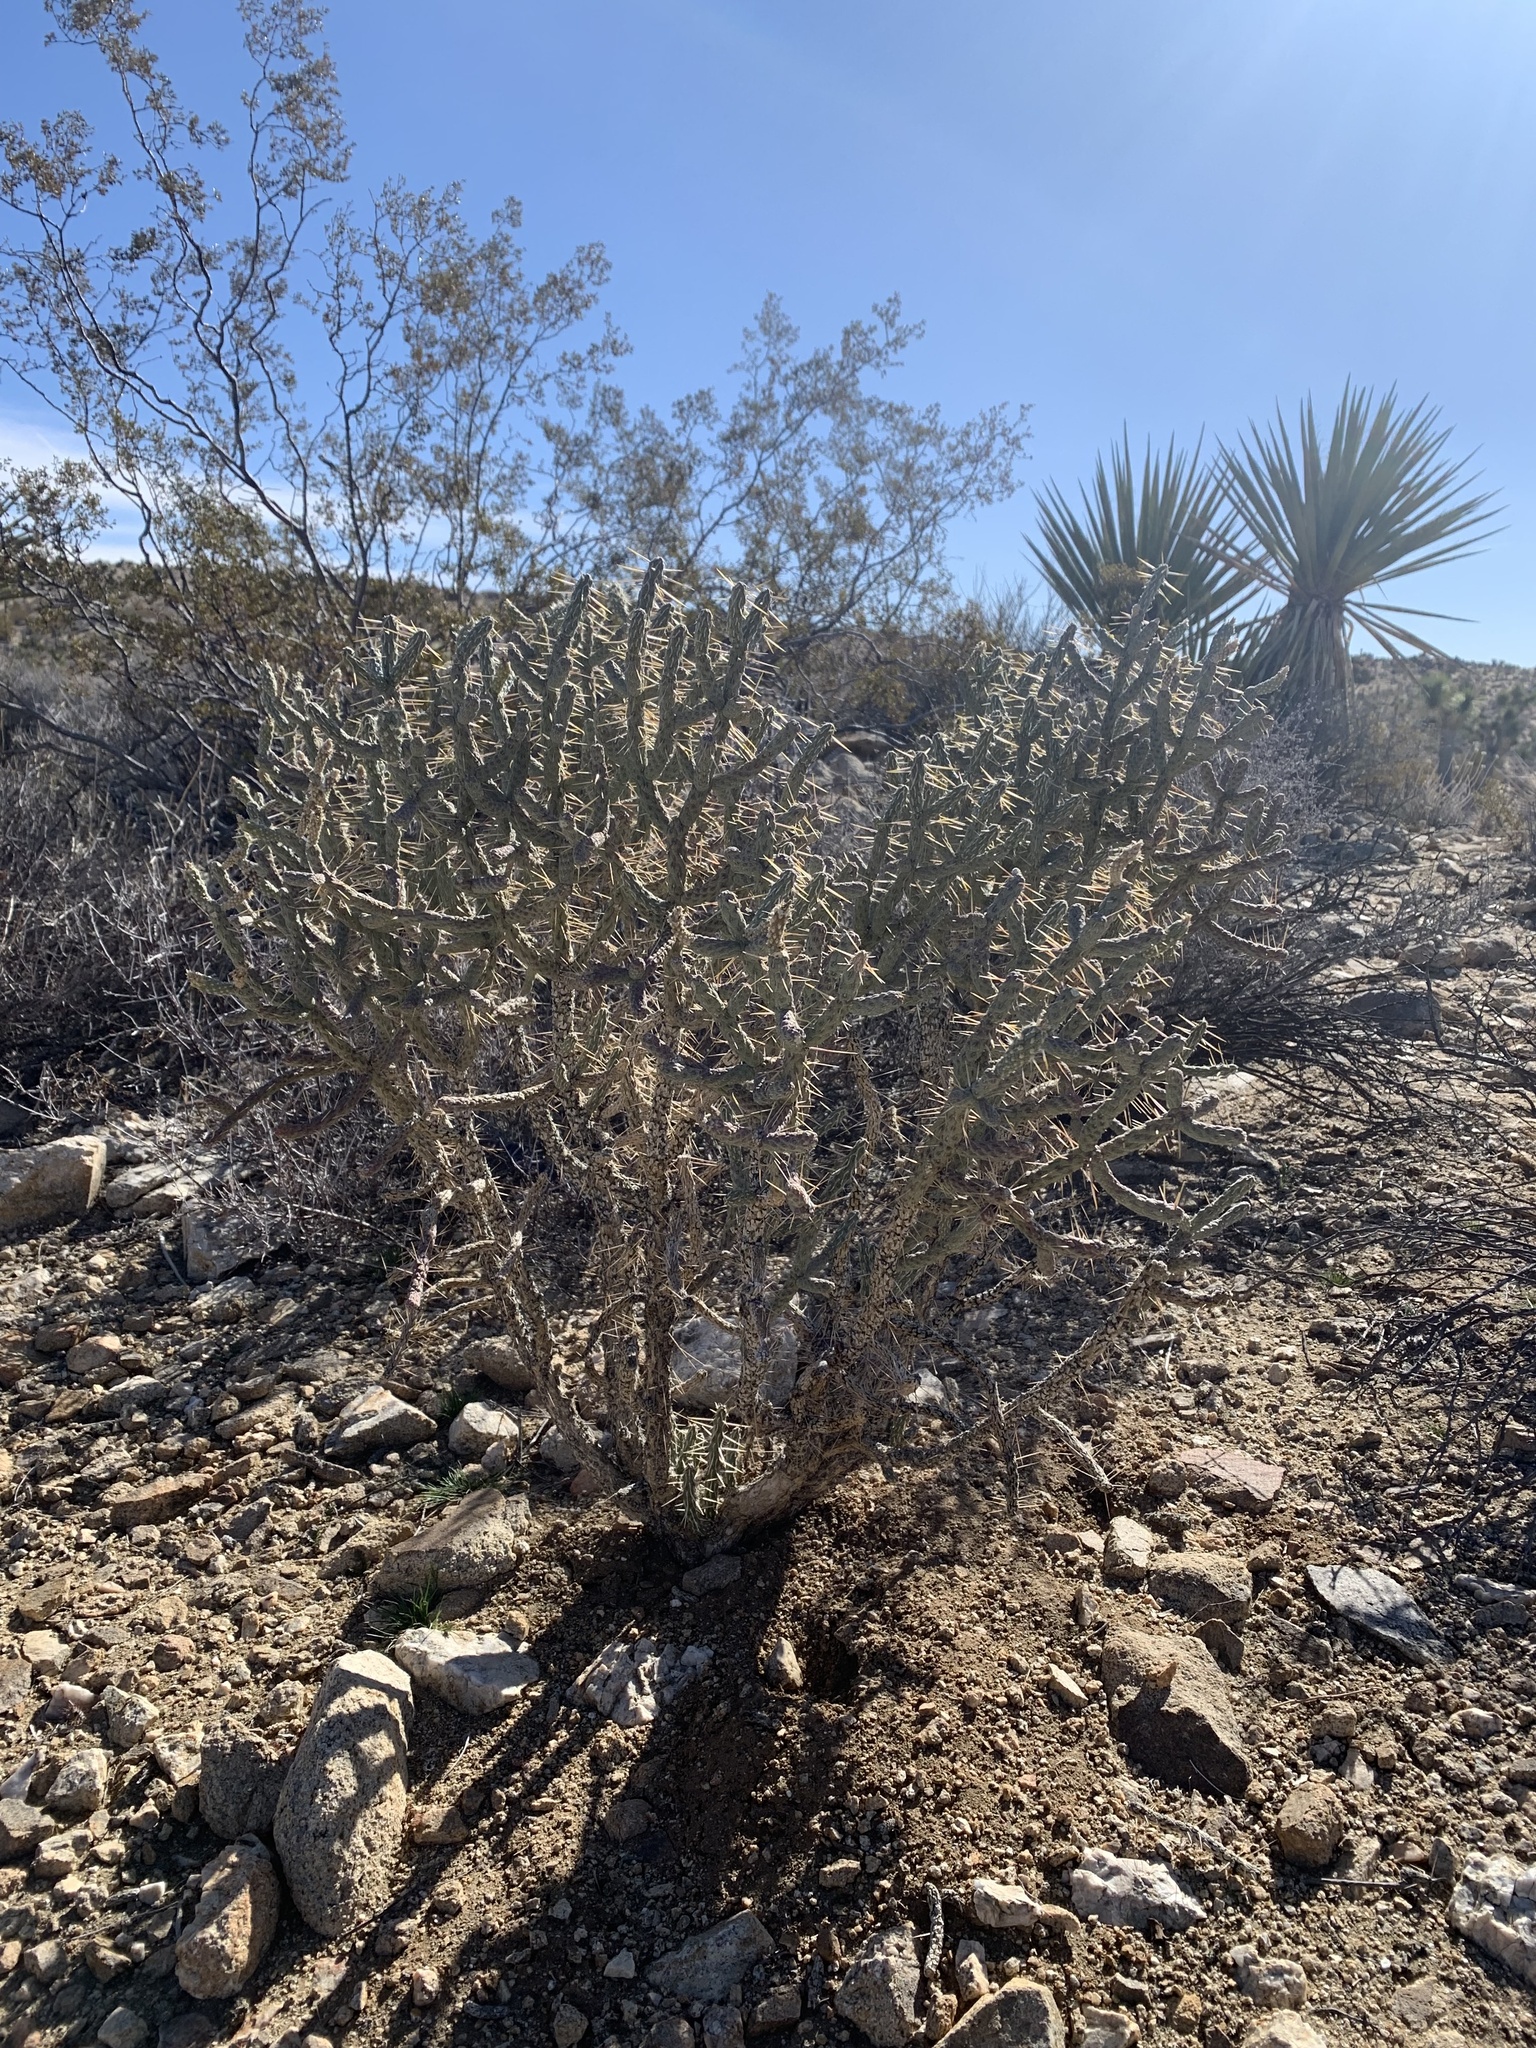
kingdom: Plantae
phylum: Tracheophyta
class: Magnoliopsida
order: Caryophyllales
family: Cactaceae
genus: Cylindropuntia
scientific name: Cylindropuntia ramosissima
